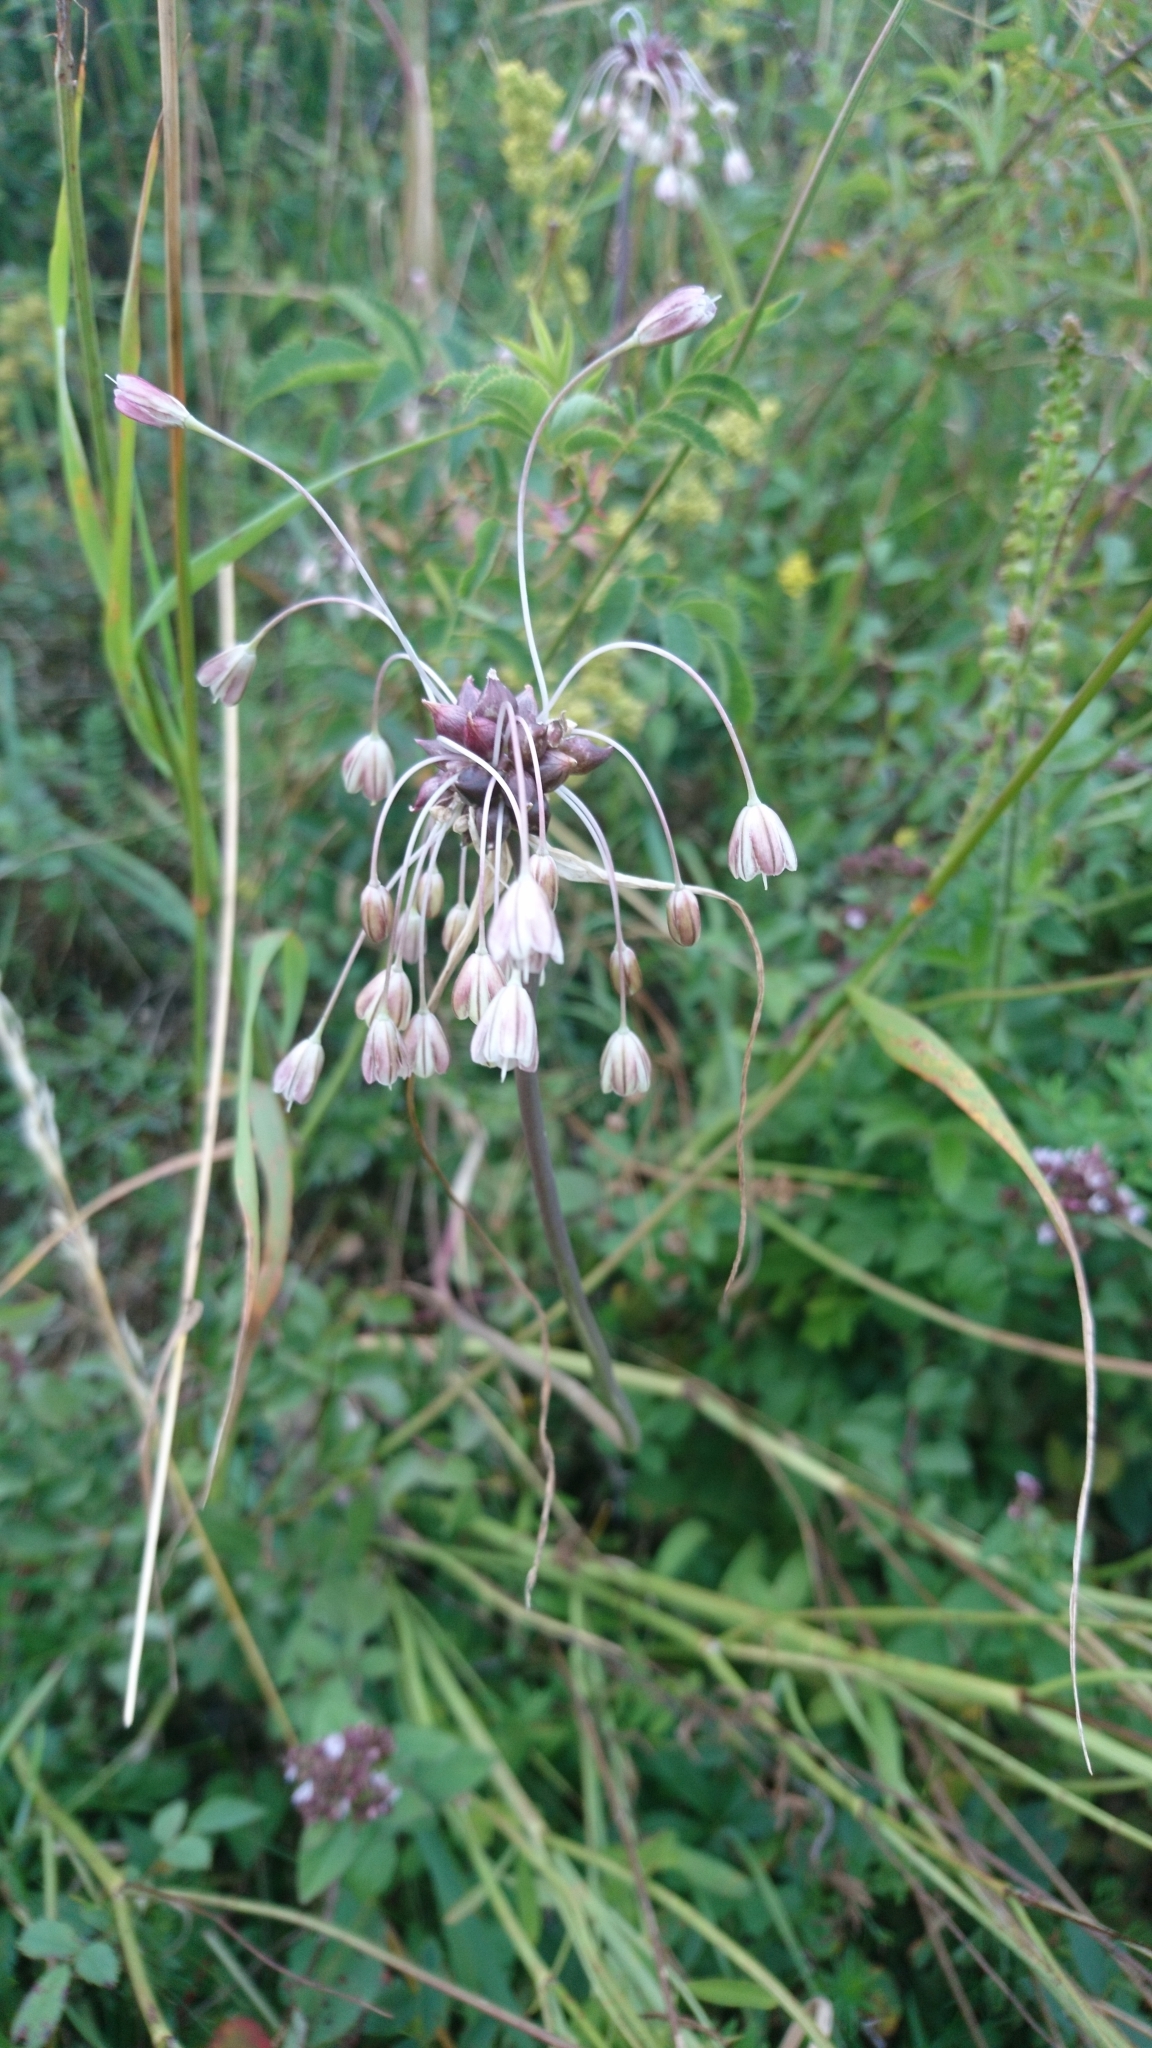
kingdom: Plantae
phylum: Tracheophyta
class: Liliopsida
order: Asparagales
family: Amaryllidaceae
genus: Allium
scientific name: Allium oleraceum
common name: Field garlic
